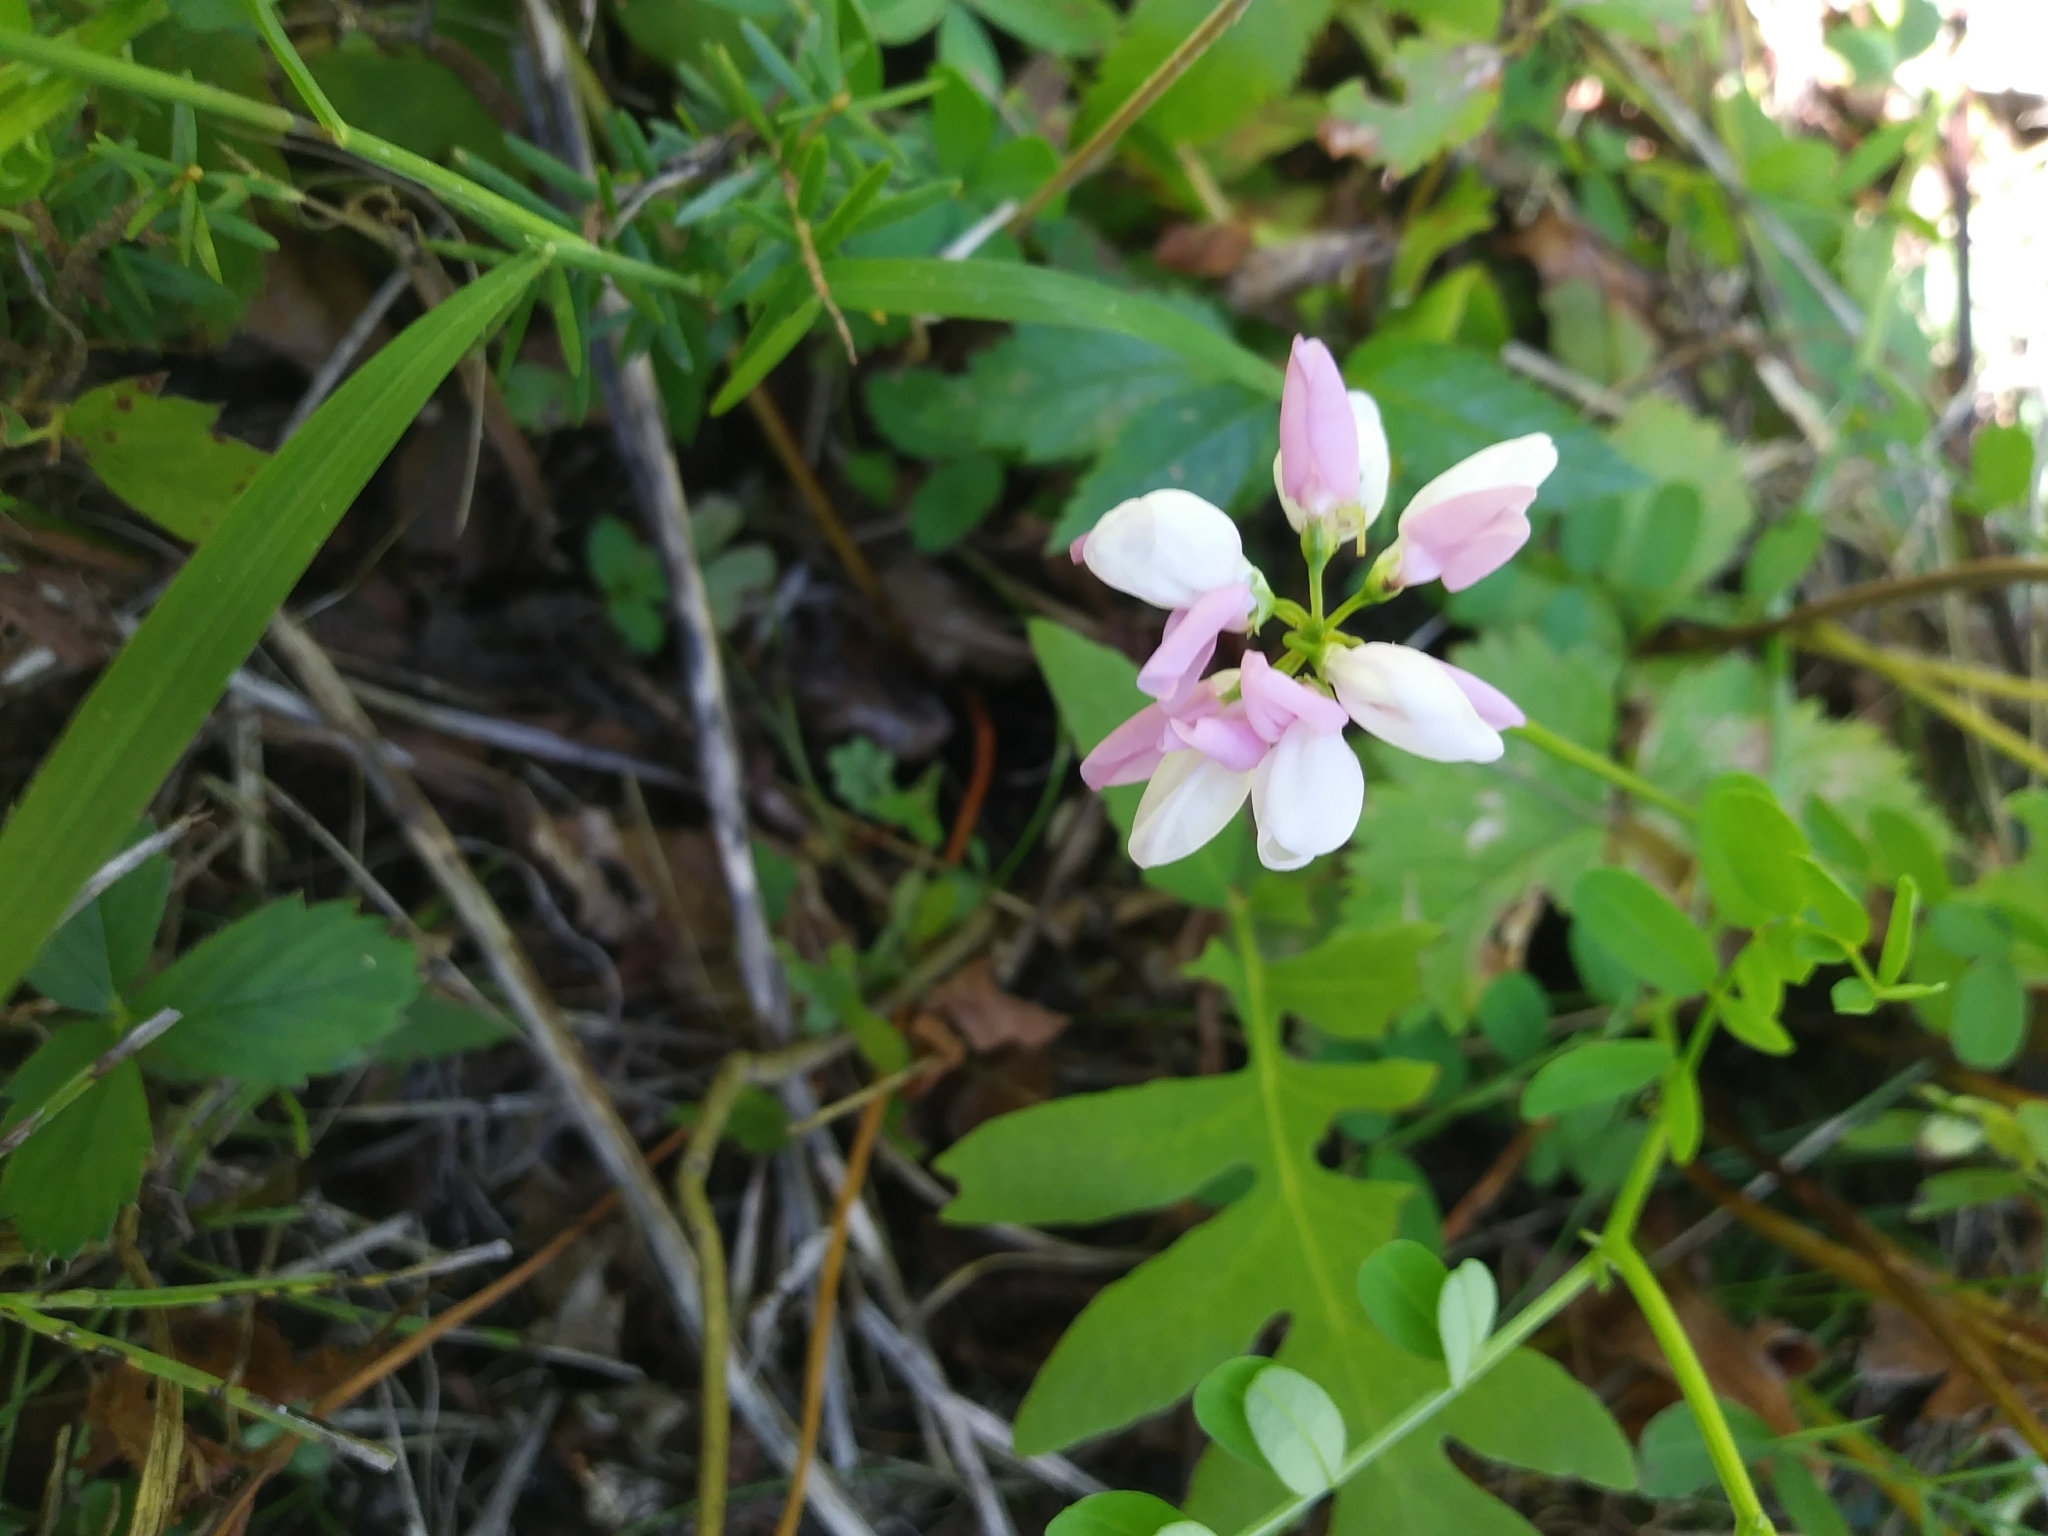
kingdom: Plantae
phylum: Tracheophyta
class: Magnoliopsida
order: Fabales
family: Fabaceae
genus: Coronilla
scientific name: Coronilla varia
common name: Crownvetch
